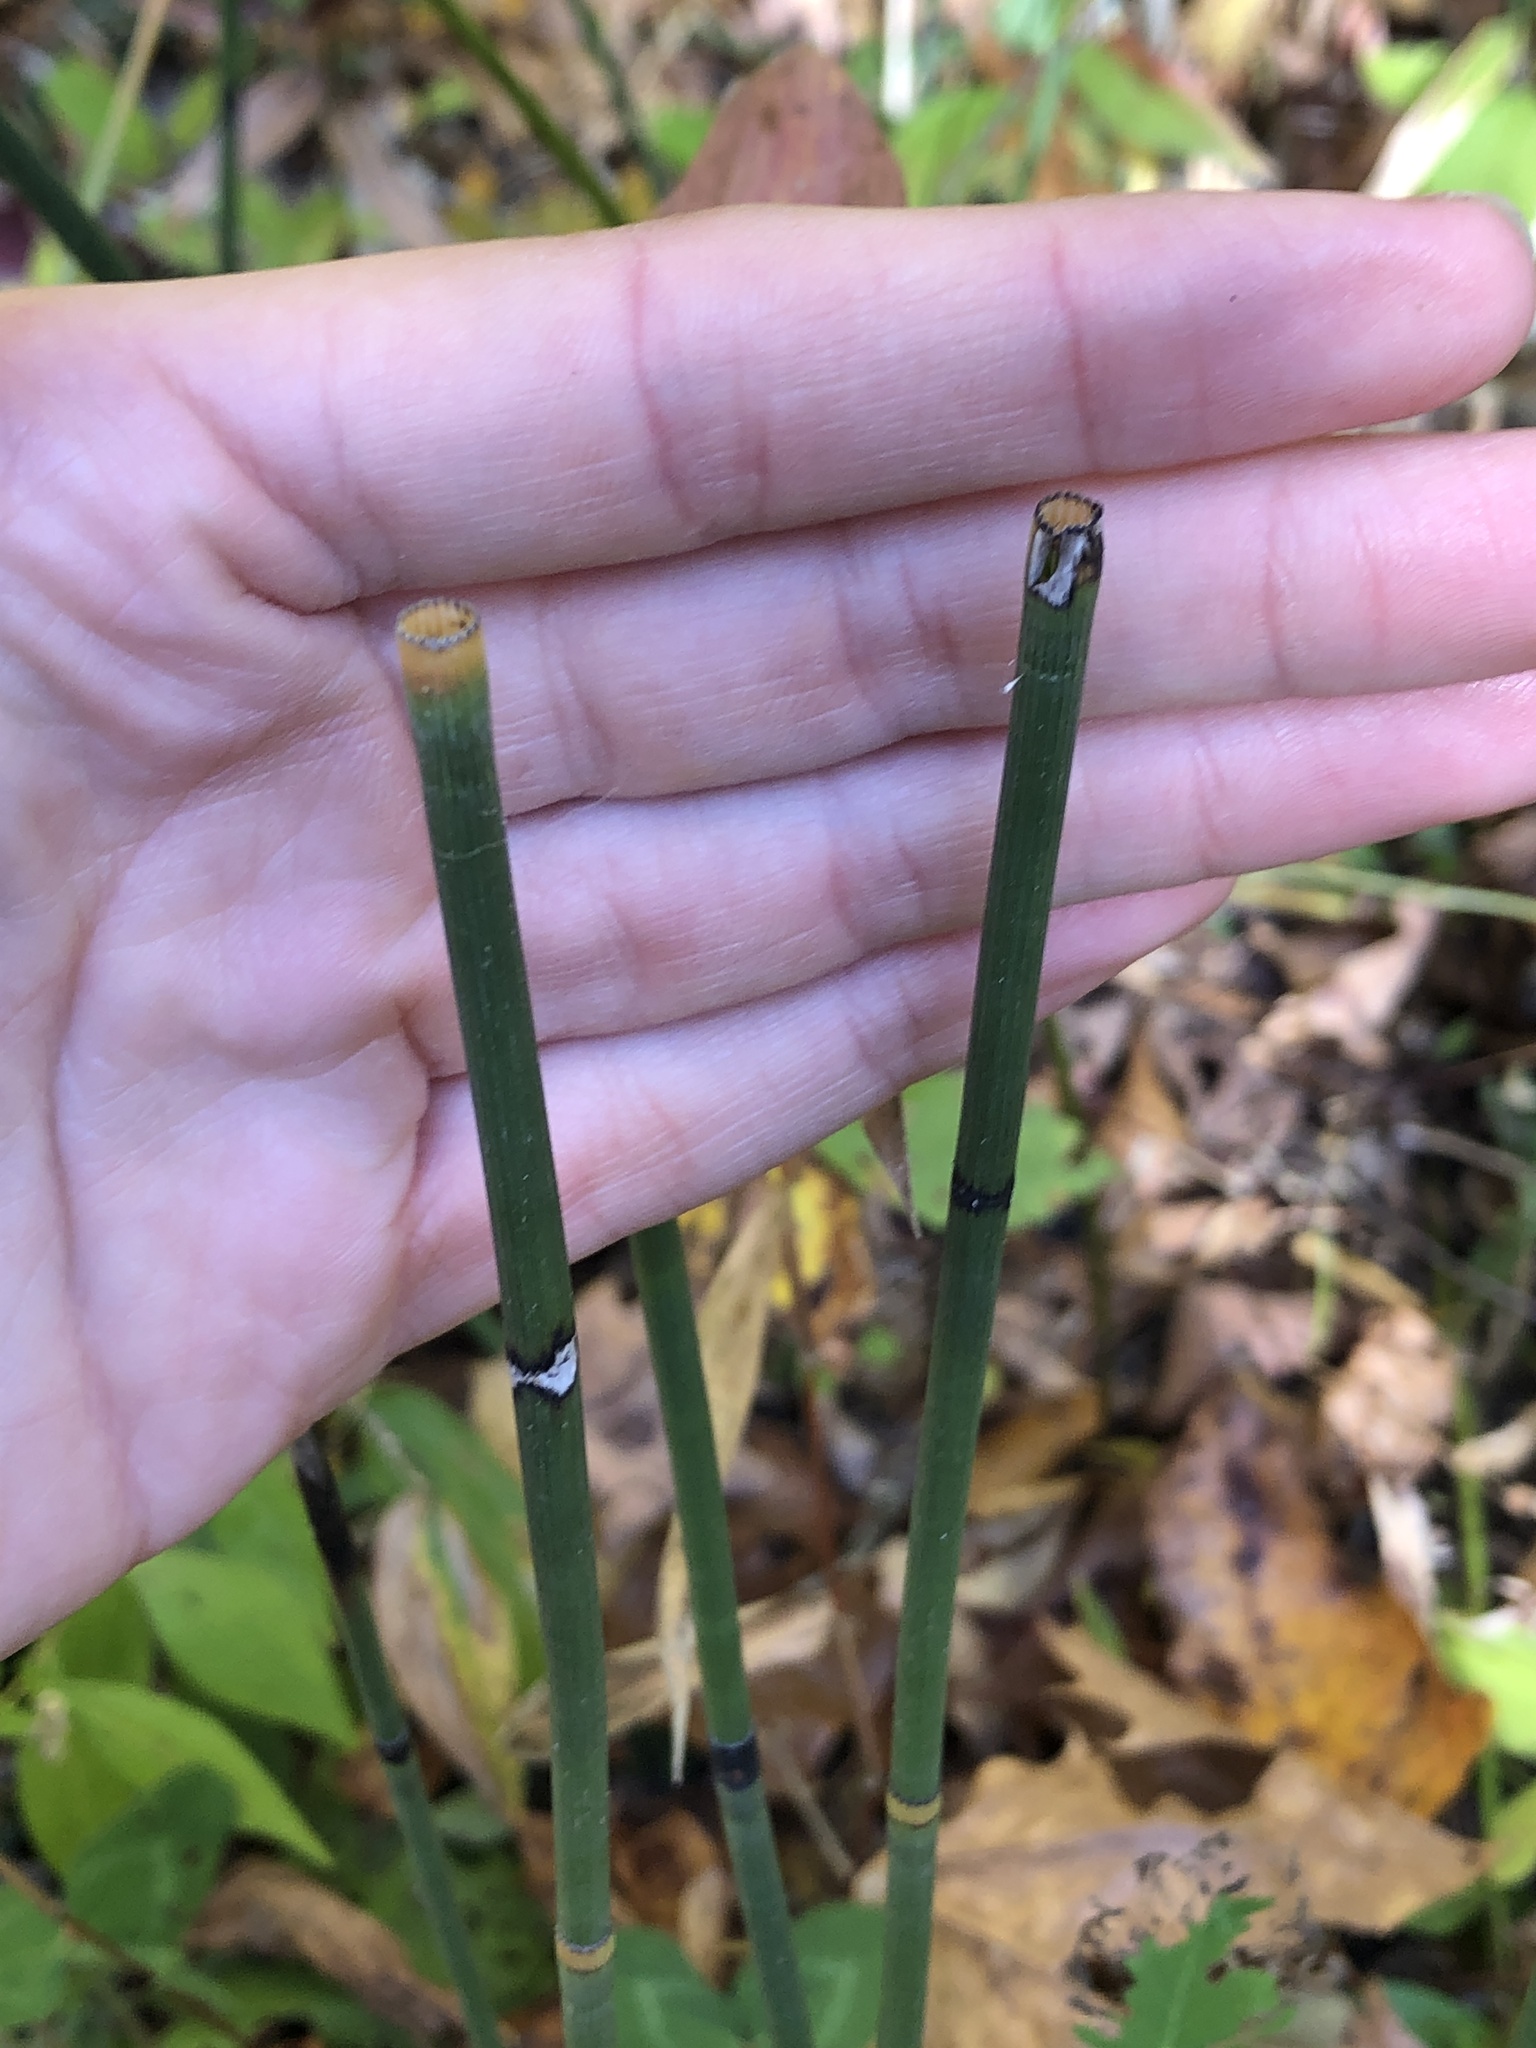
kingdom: Plantae
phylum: Tracheophyta
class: Polypodiopsida
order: Equisetales
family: Equisetaceae
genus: Equisetum
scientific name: Equisetum hyemale
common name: Rough horsetail
